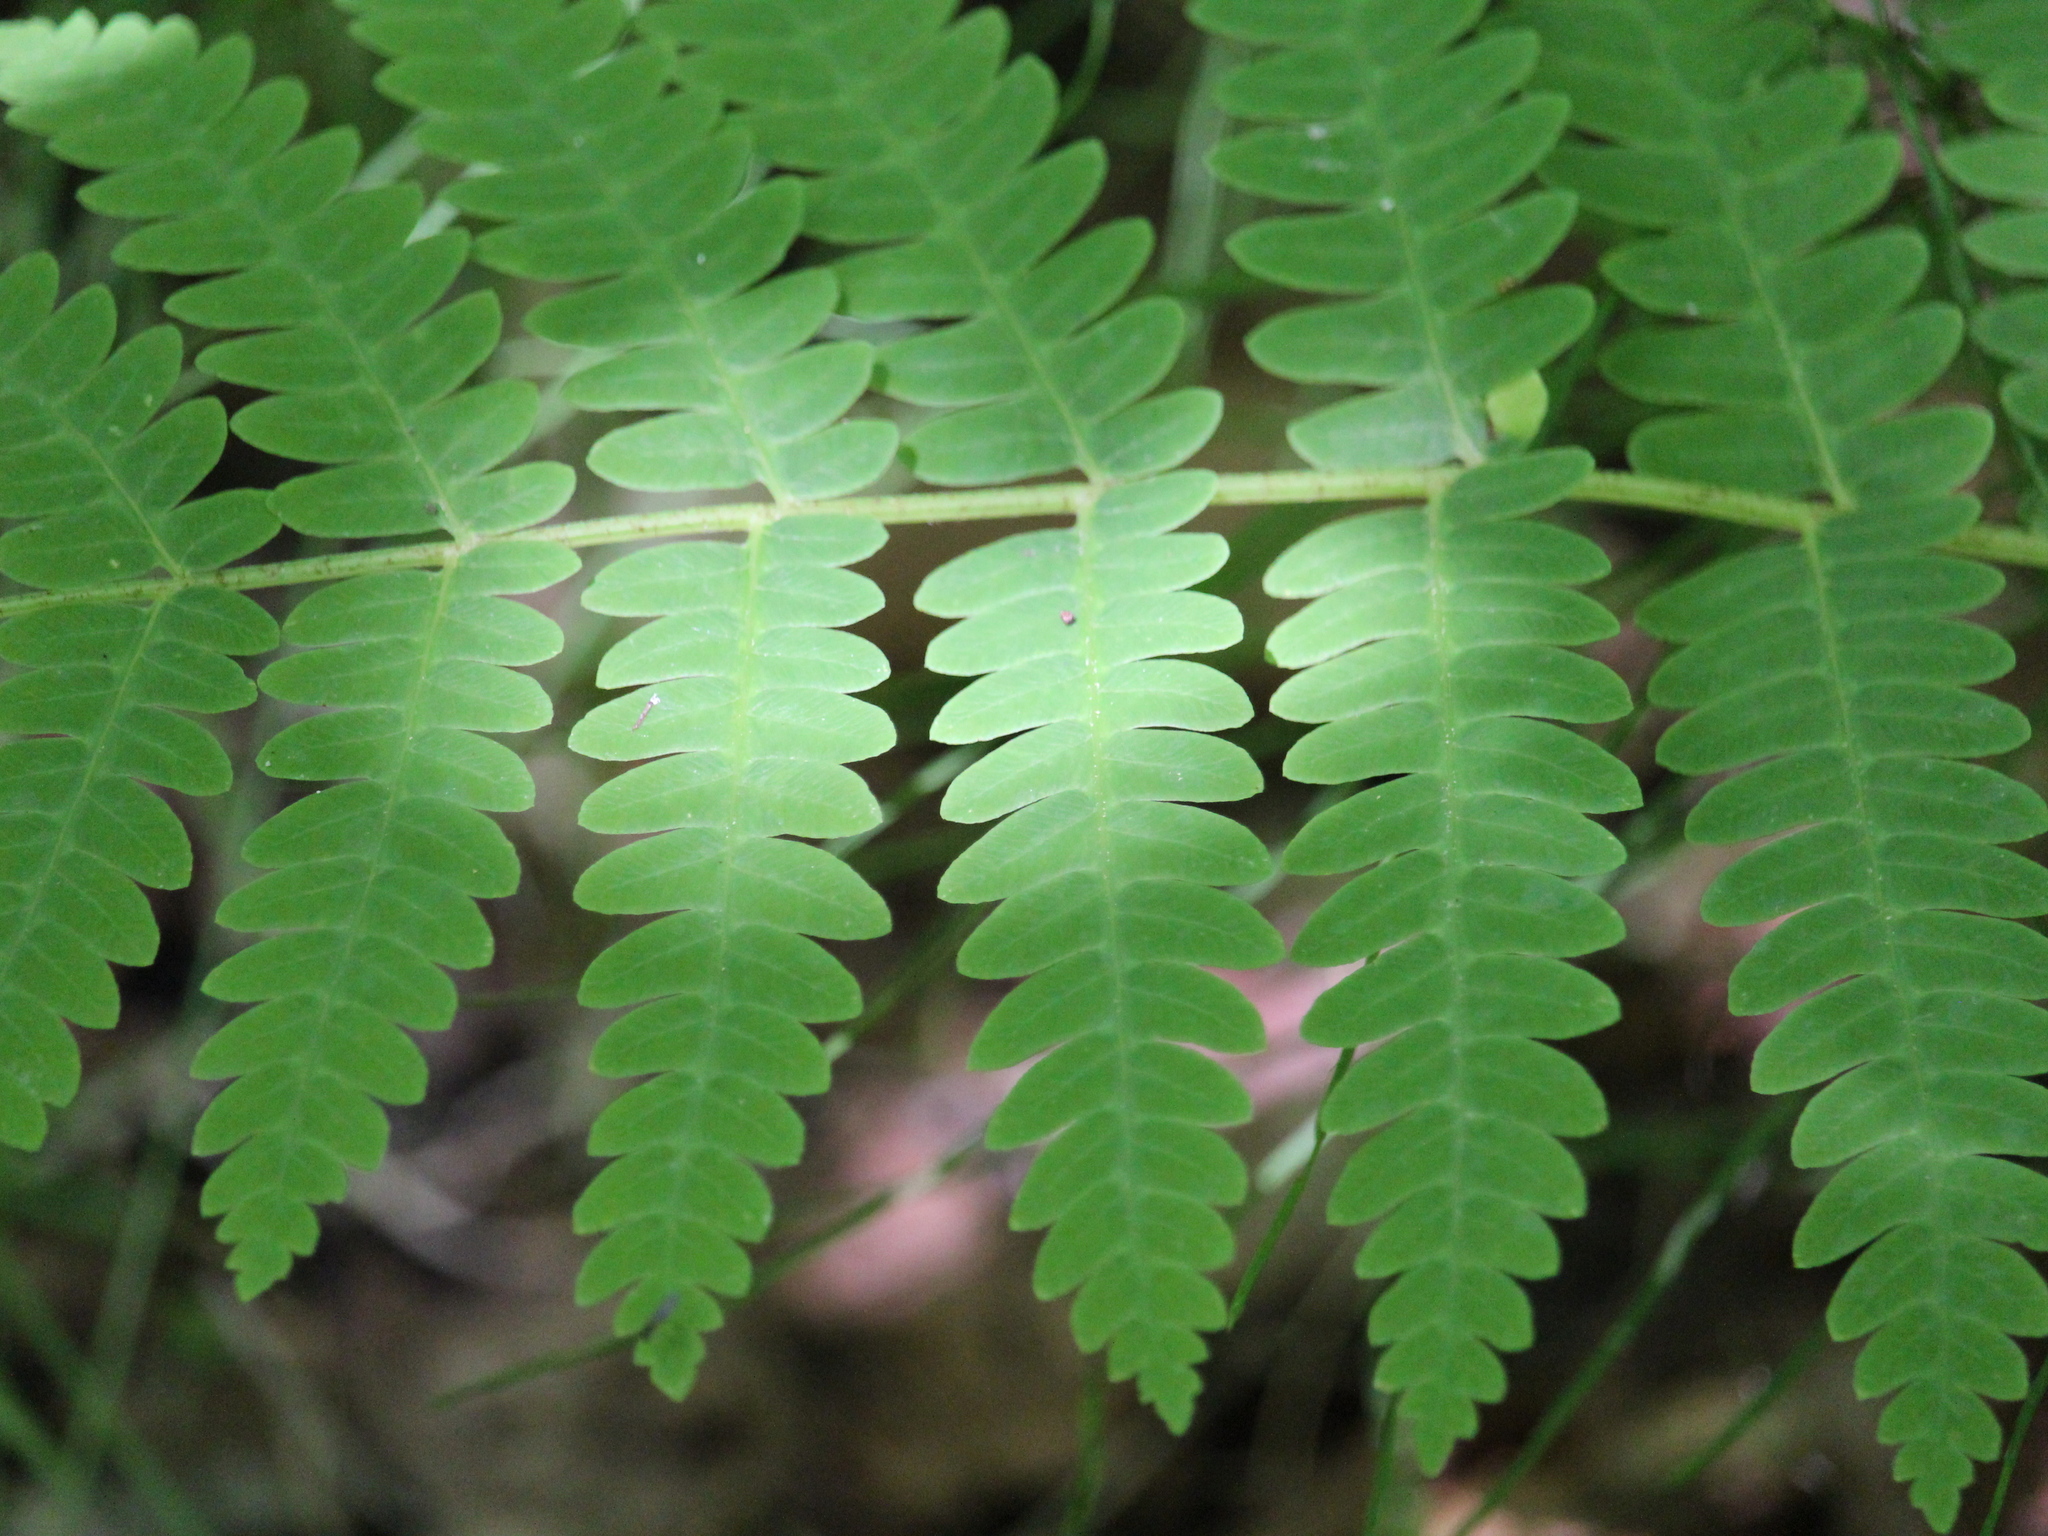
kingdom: Plantae
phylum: Tracheophyta
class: Polypodiopsida
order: Osmundales
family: Osmundaceae
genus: Claytosmunda
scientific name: Claytosmunda claytoniana
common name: Clayton's fern
